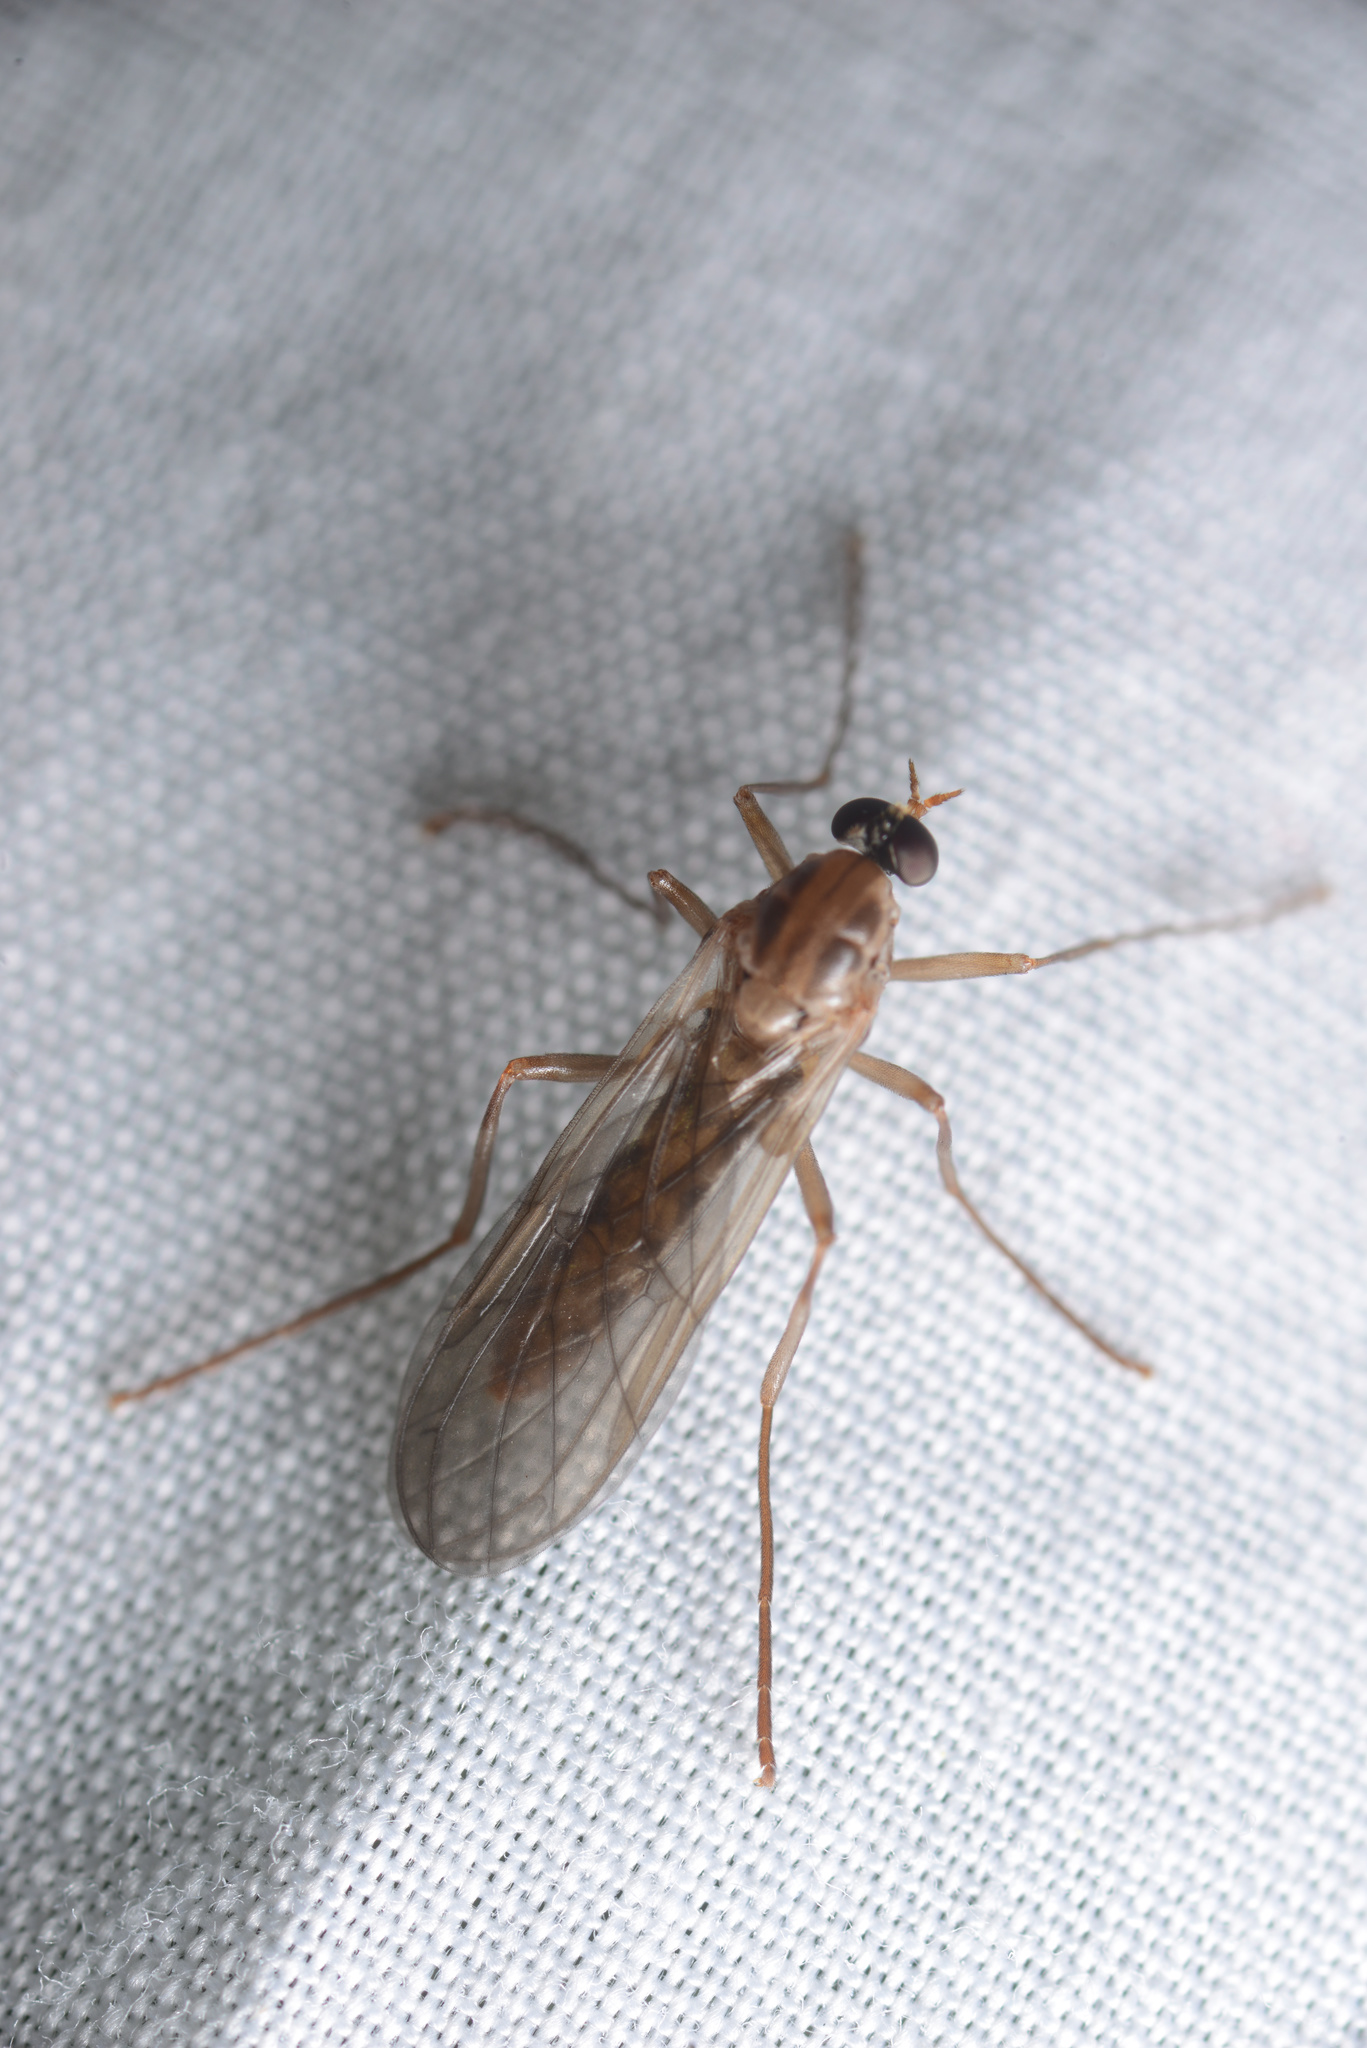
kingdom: Animalia
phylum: Arthropoda
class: Insecta
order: Diptera
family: Stratiomyidae
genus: Boreoides
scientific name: Boreoides tasmaniensis
